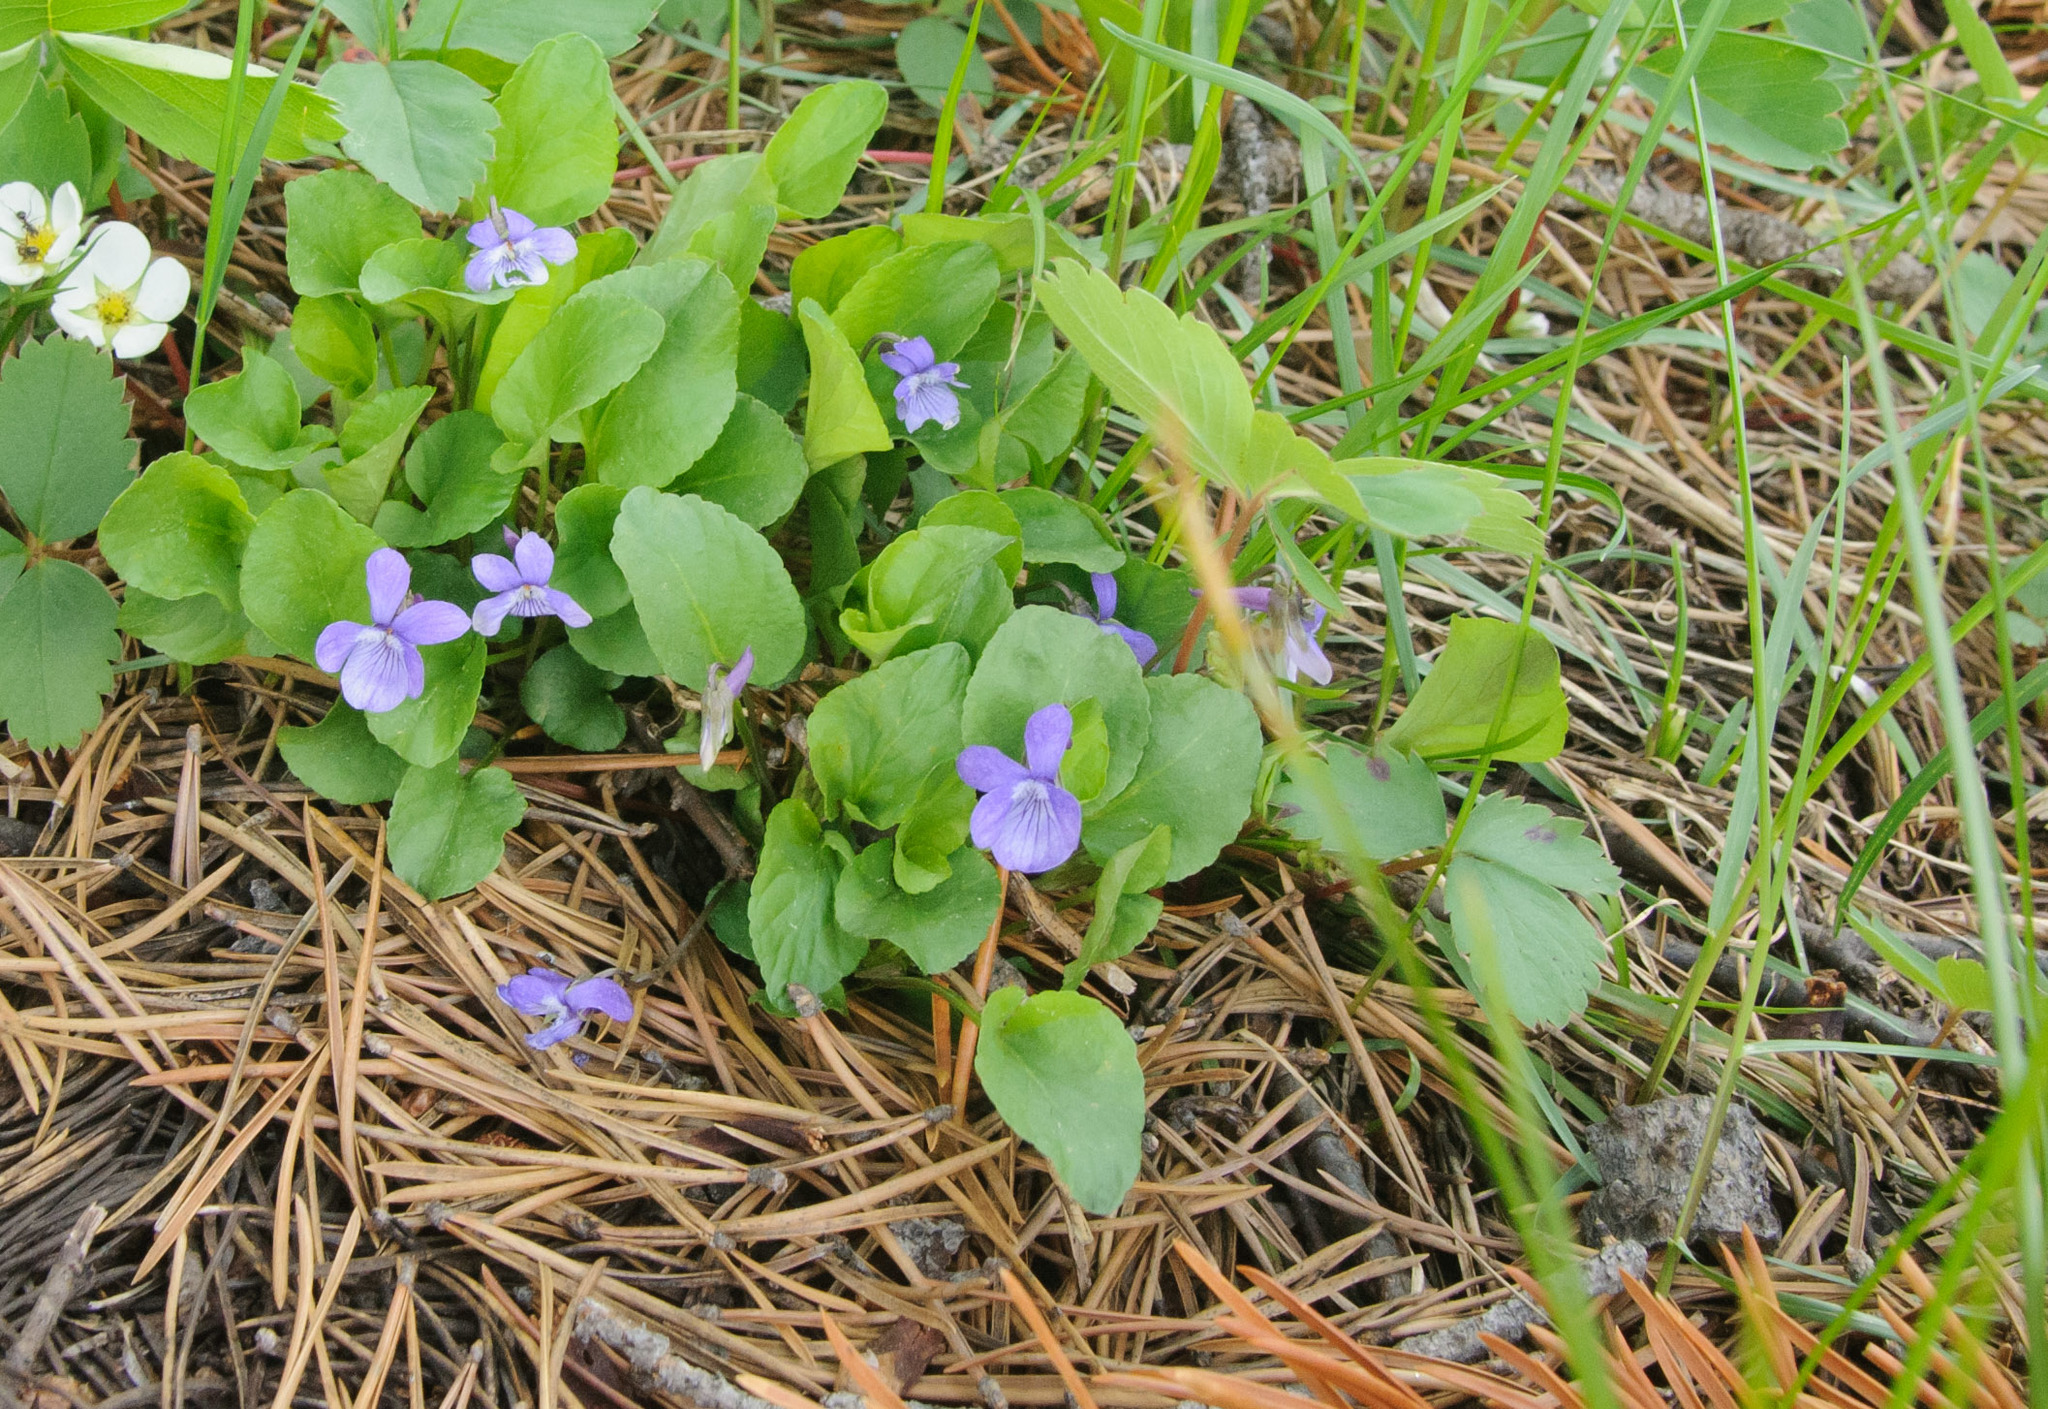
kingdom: Plantae
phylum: Tracheophyta
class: Magnoliopsida
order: Malpighiales
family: Violaceae
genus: Viola
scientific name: Viola adunca
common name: Sand violet
